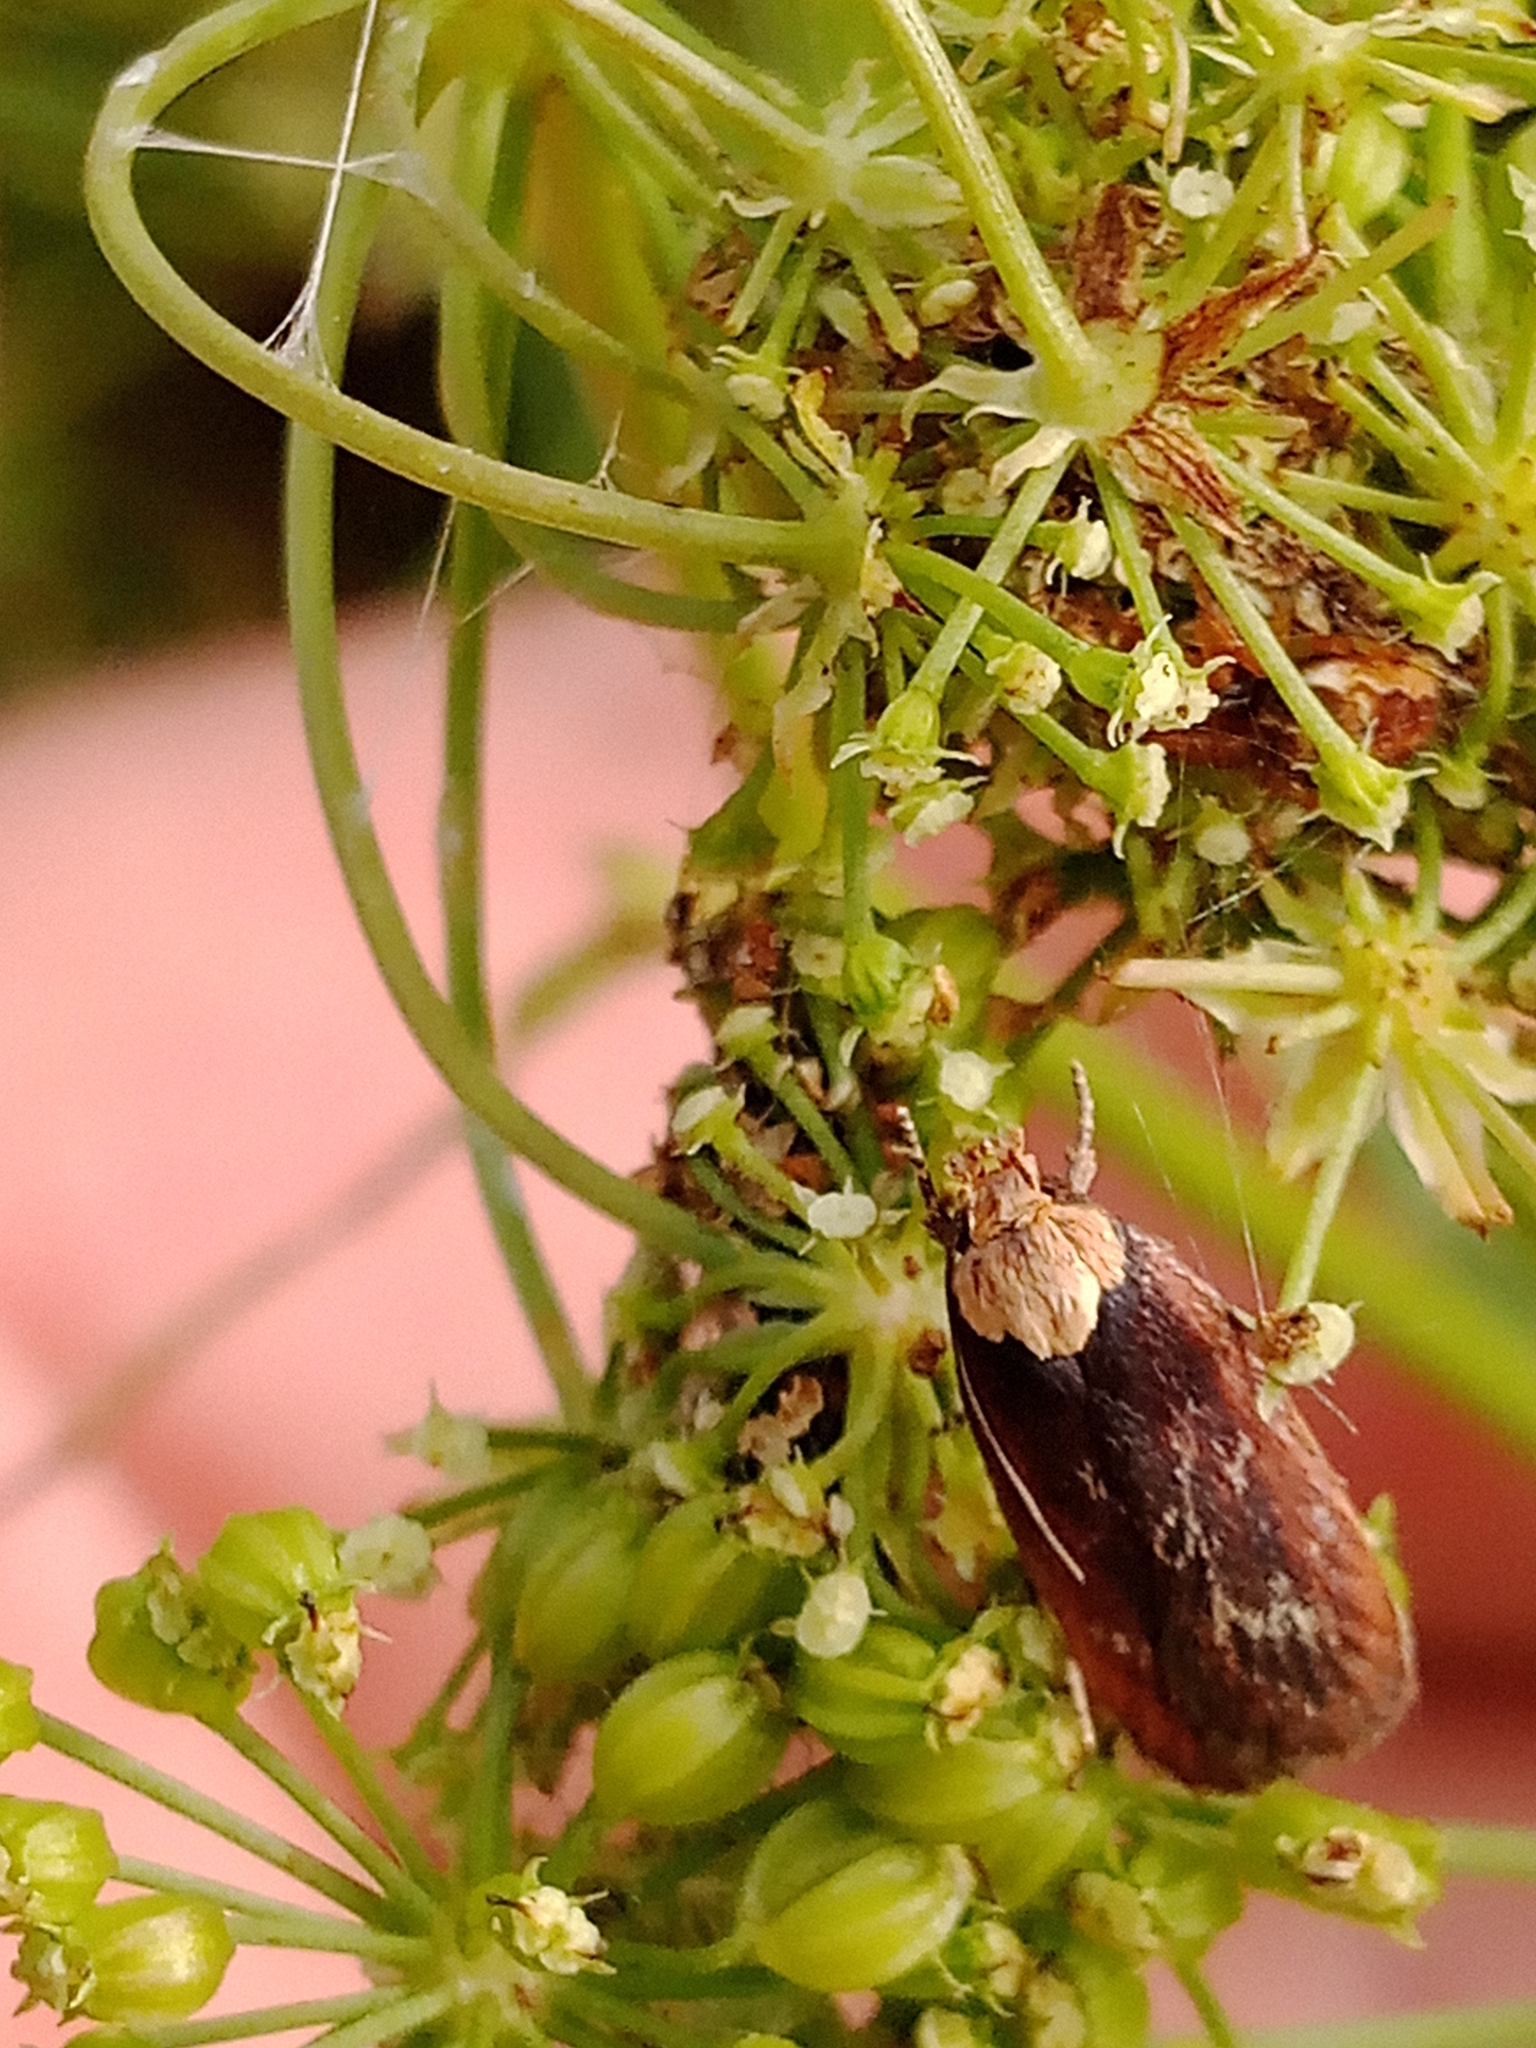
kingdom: Animalia
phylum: Arthropoda
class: Insecta
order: Lepidoptera
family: Depressariidae
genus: Depressaria
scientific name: Depressaria depressana
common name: Lost flat-body
